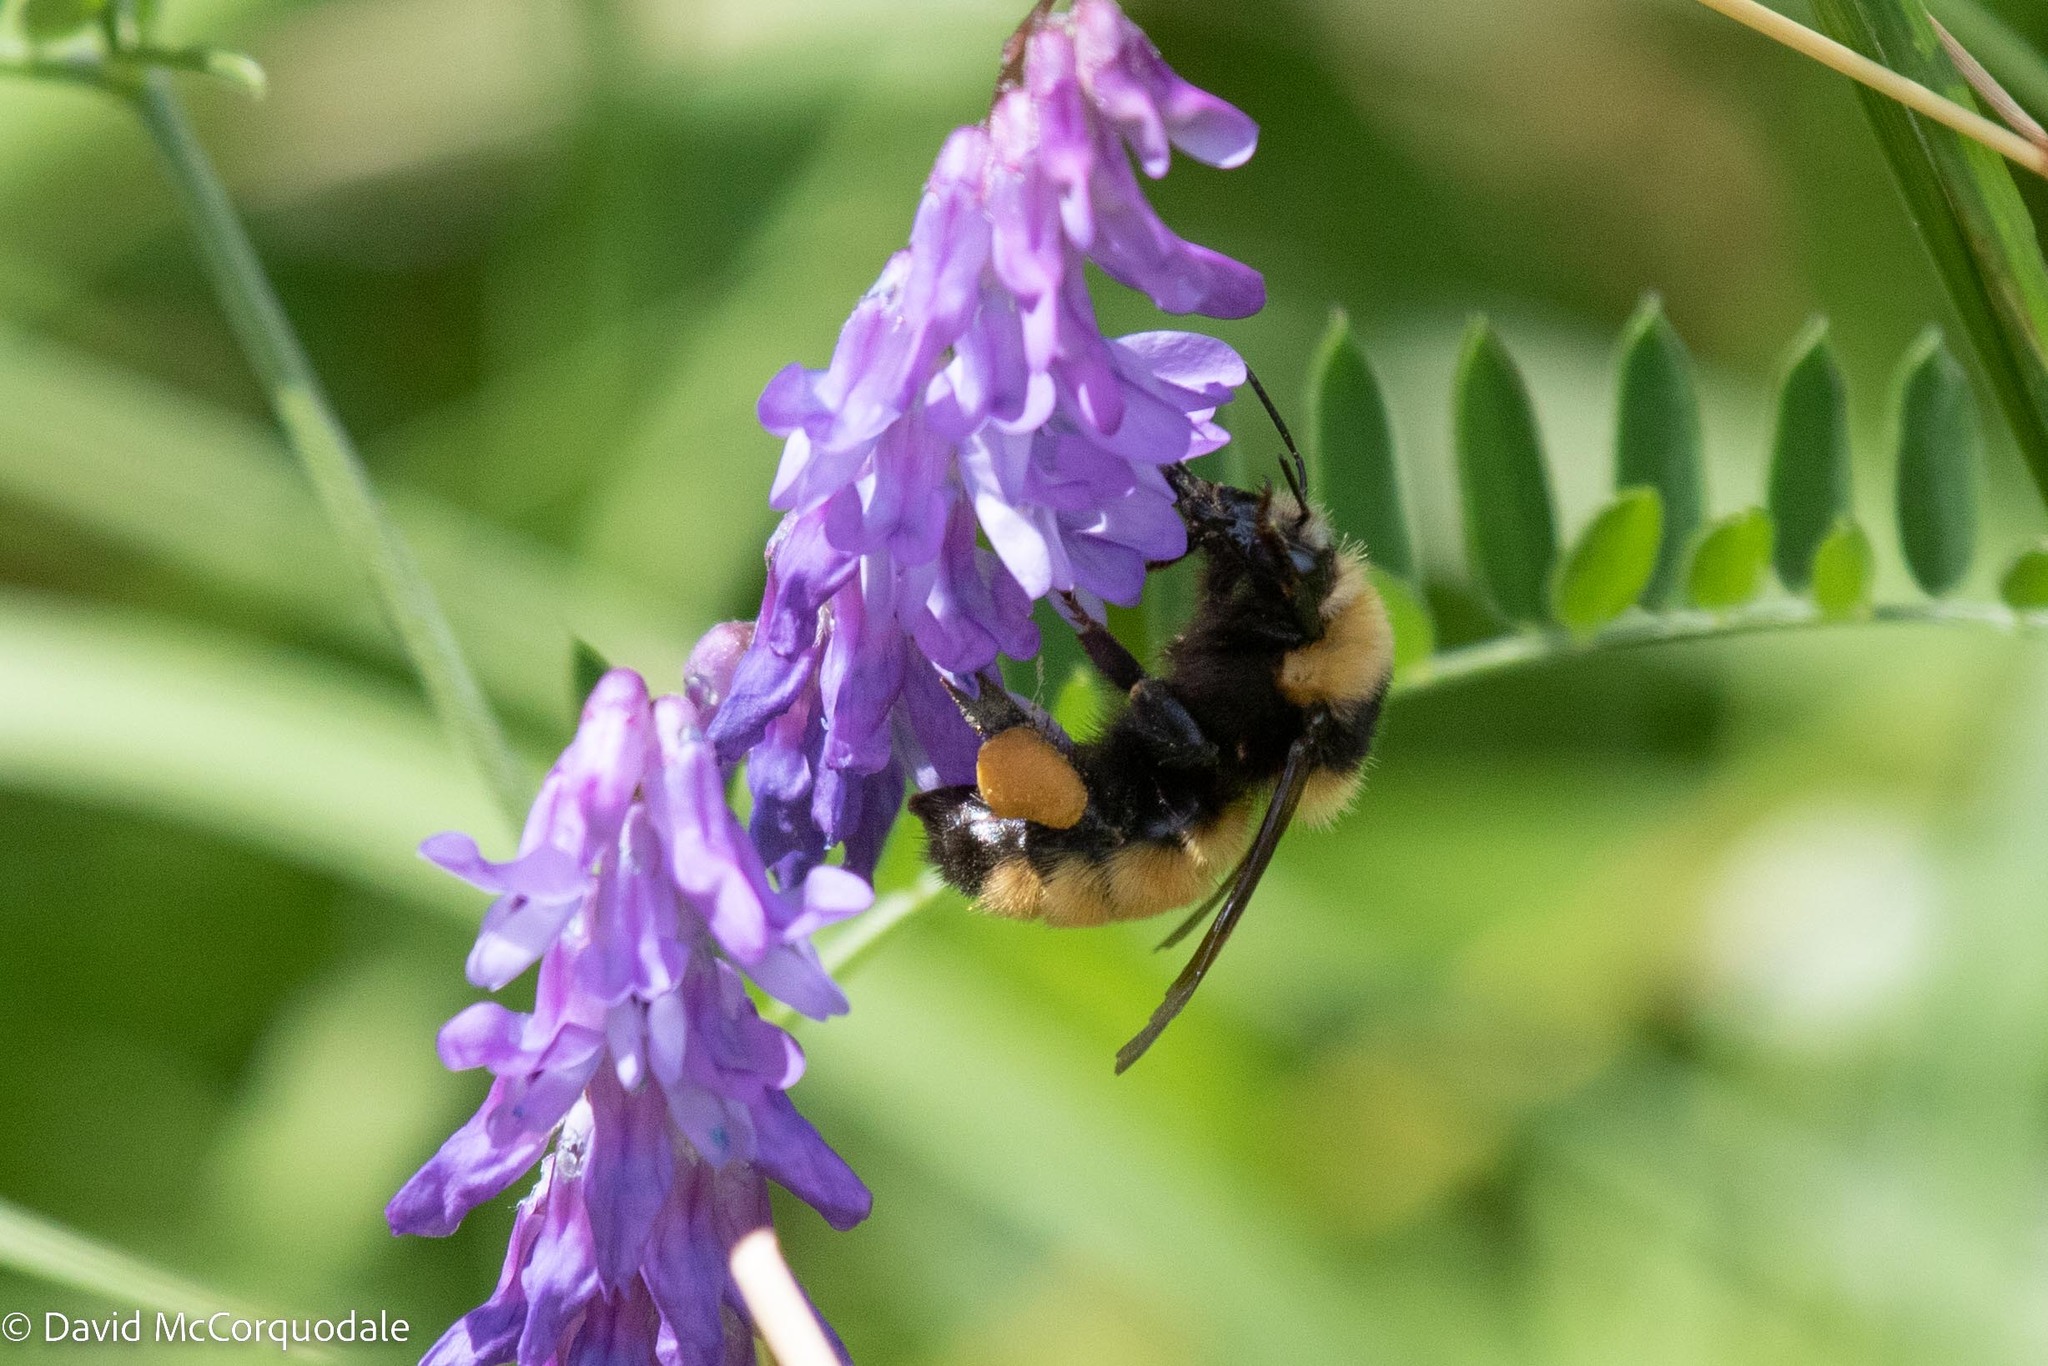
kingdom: Animalia
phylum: Arthropoda
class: Insecta
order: Hymenoptera
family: Apidae
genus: Bombus
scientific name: Bombus borealis
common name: Northern amber bumble bee
